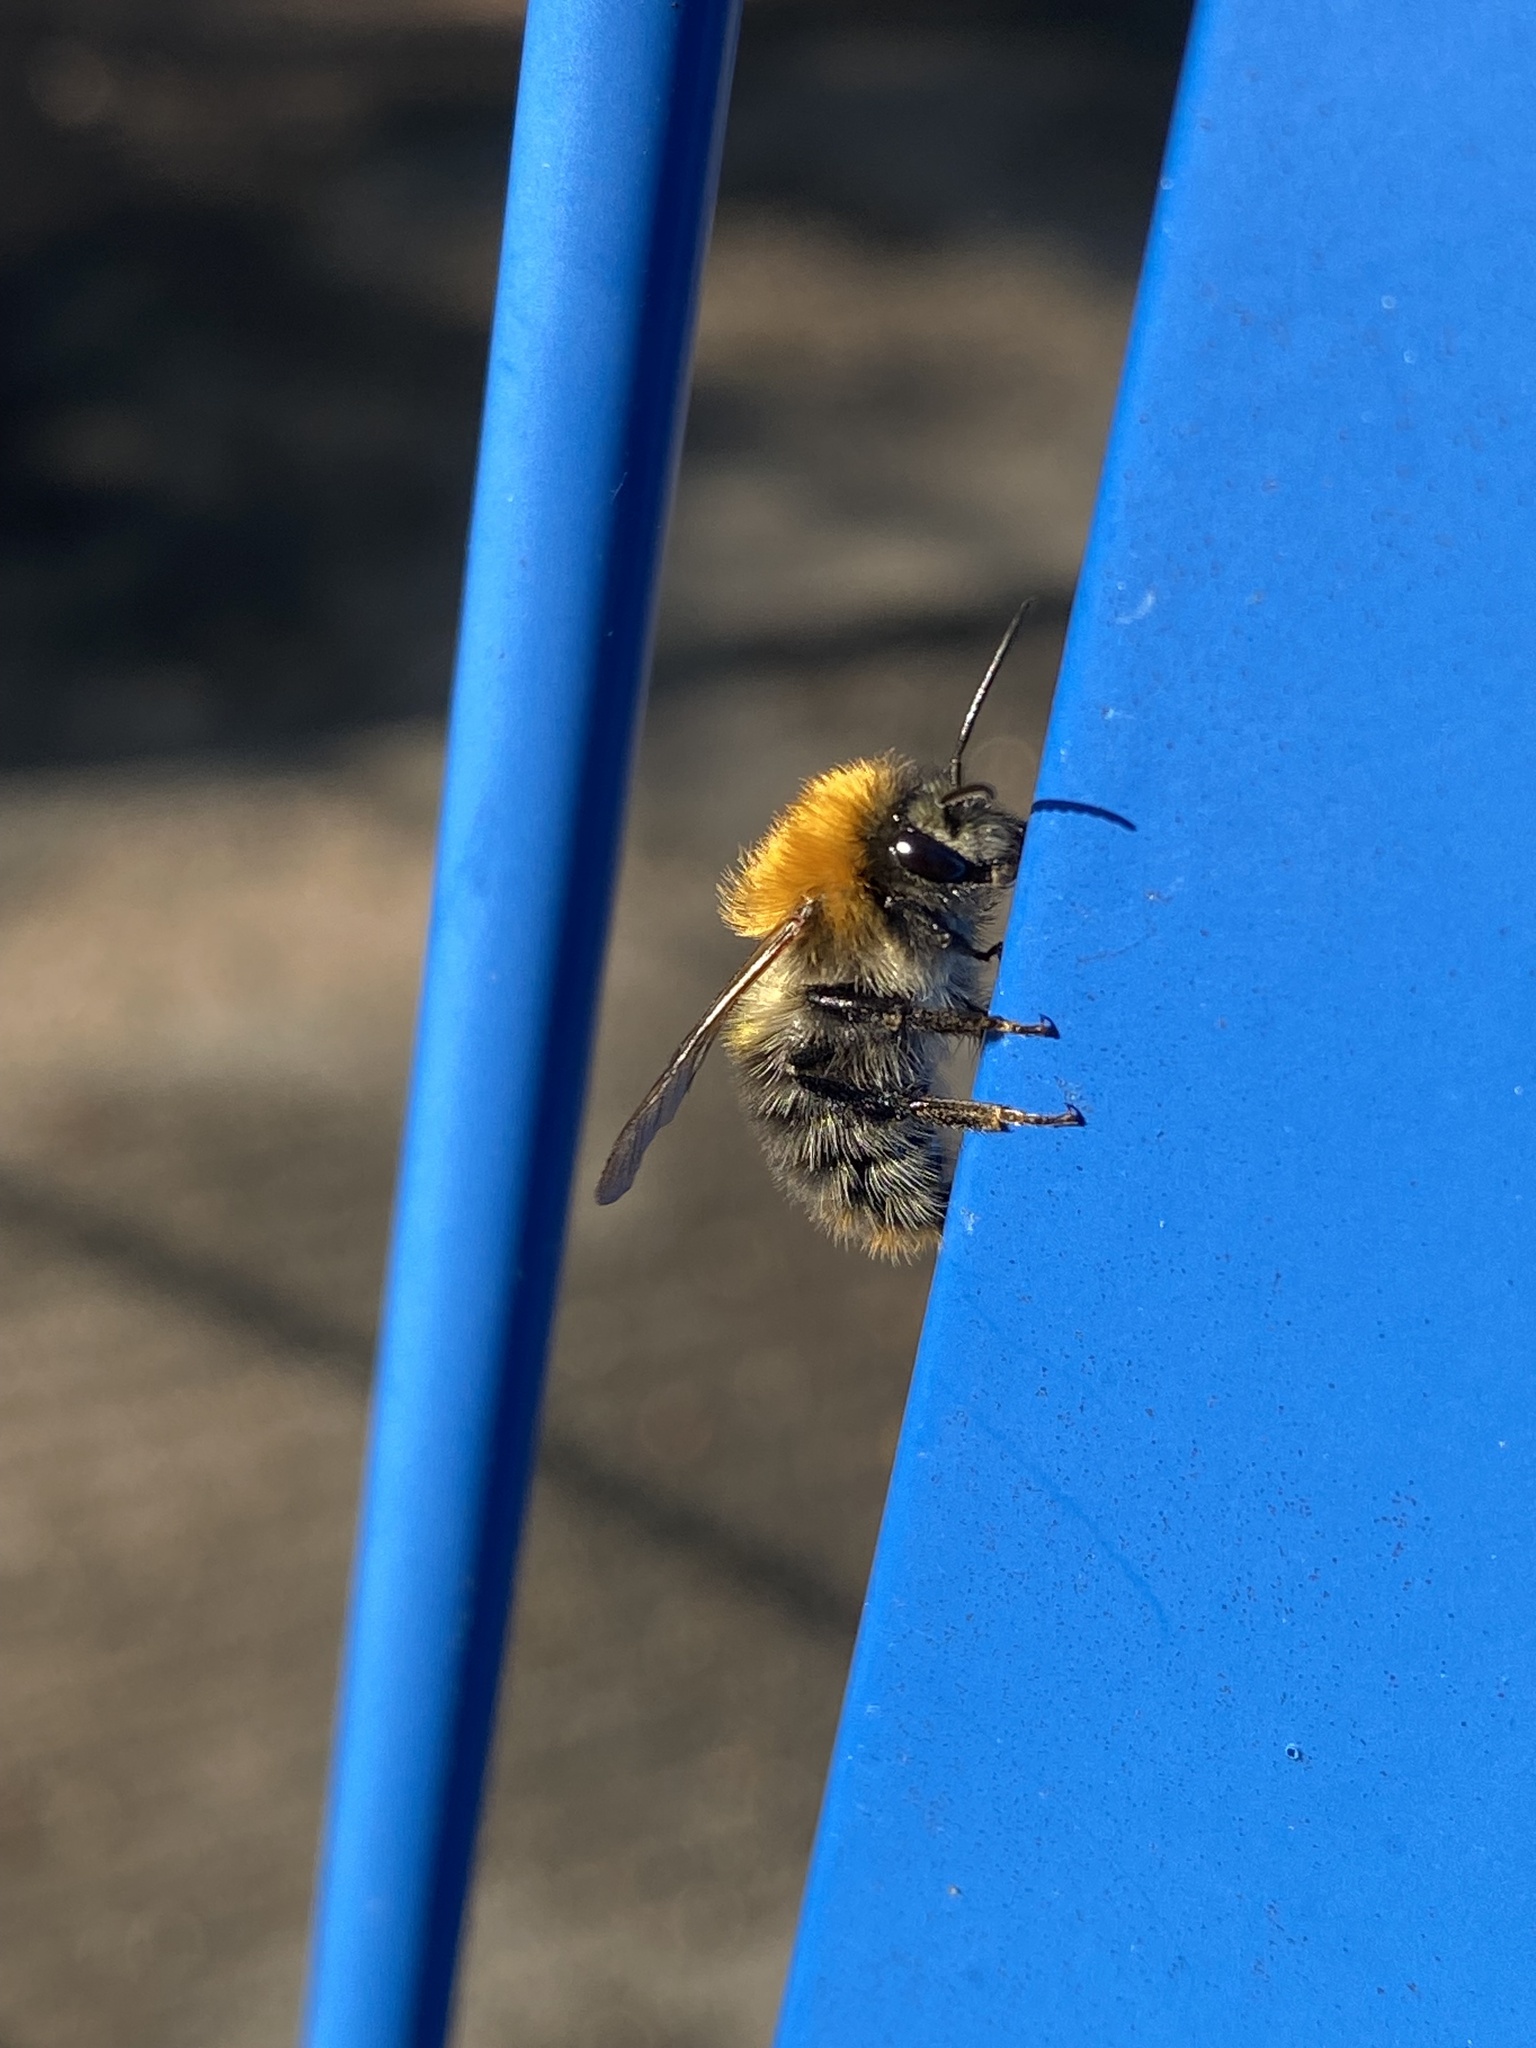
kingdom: Animalia
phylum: Arthropoda
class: Insecta
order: Hymenoptera
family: Apidae
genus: Bombus
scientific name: Bombus pascuorum
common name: Common carder bee
